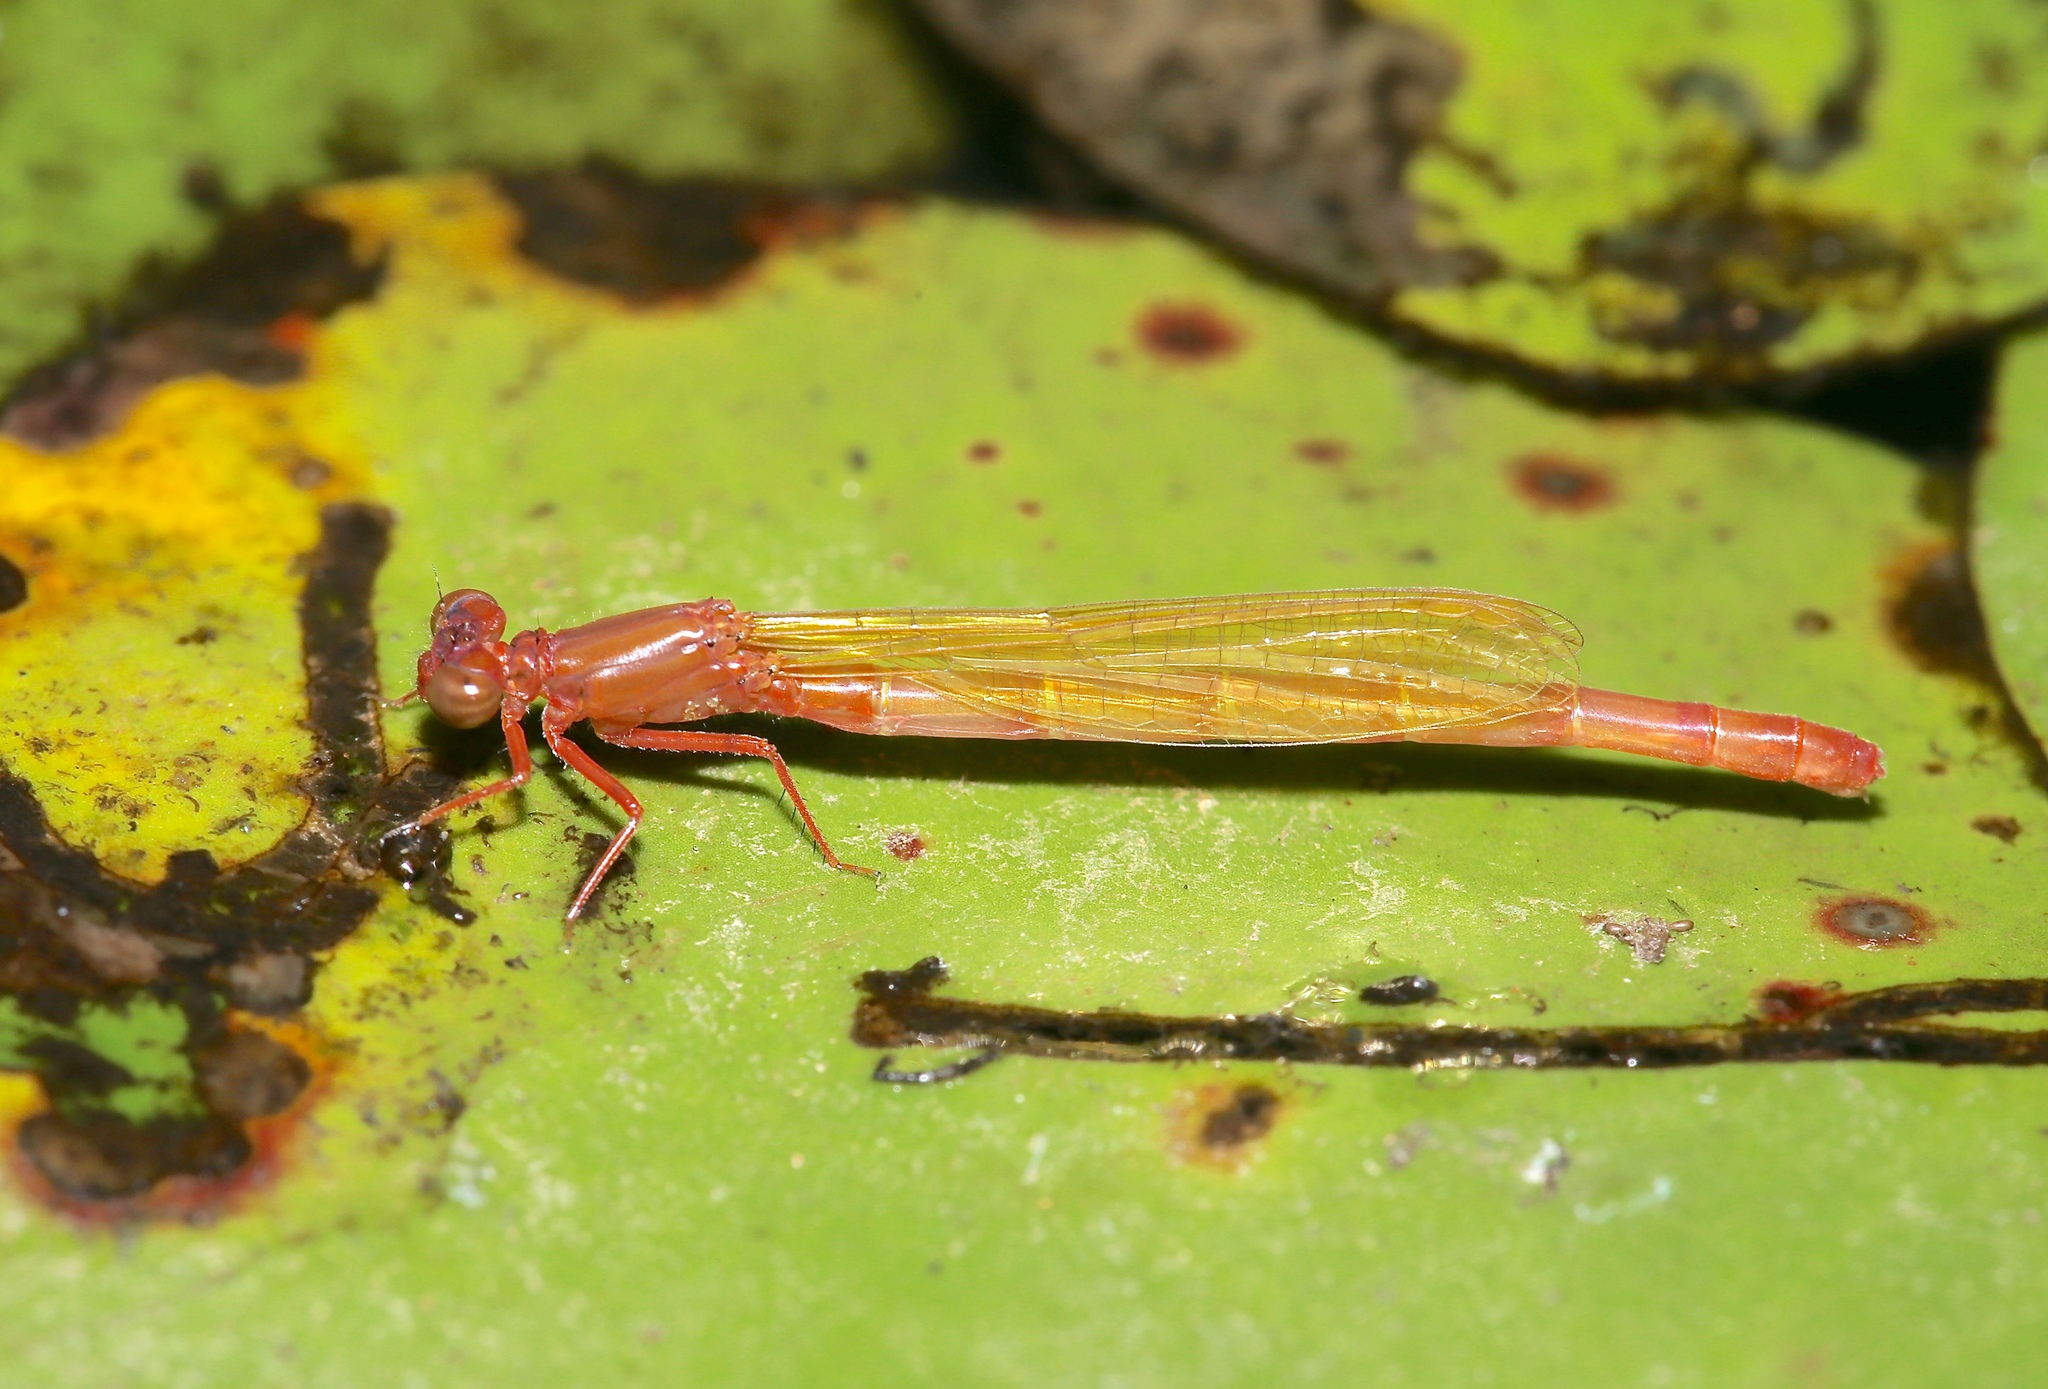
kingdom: Animalia
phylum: Arthropoda
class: Insecta
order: Odonata
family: Coenagrionidae
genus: Ischnura
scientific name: Ischnura kellicotti
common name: Lilypad forktail
